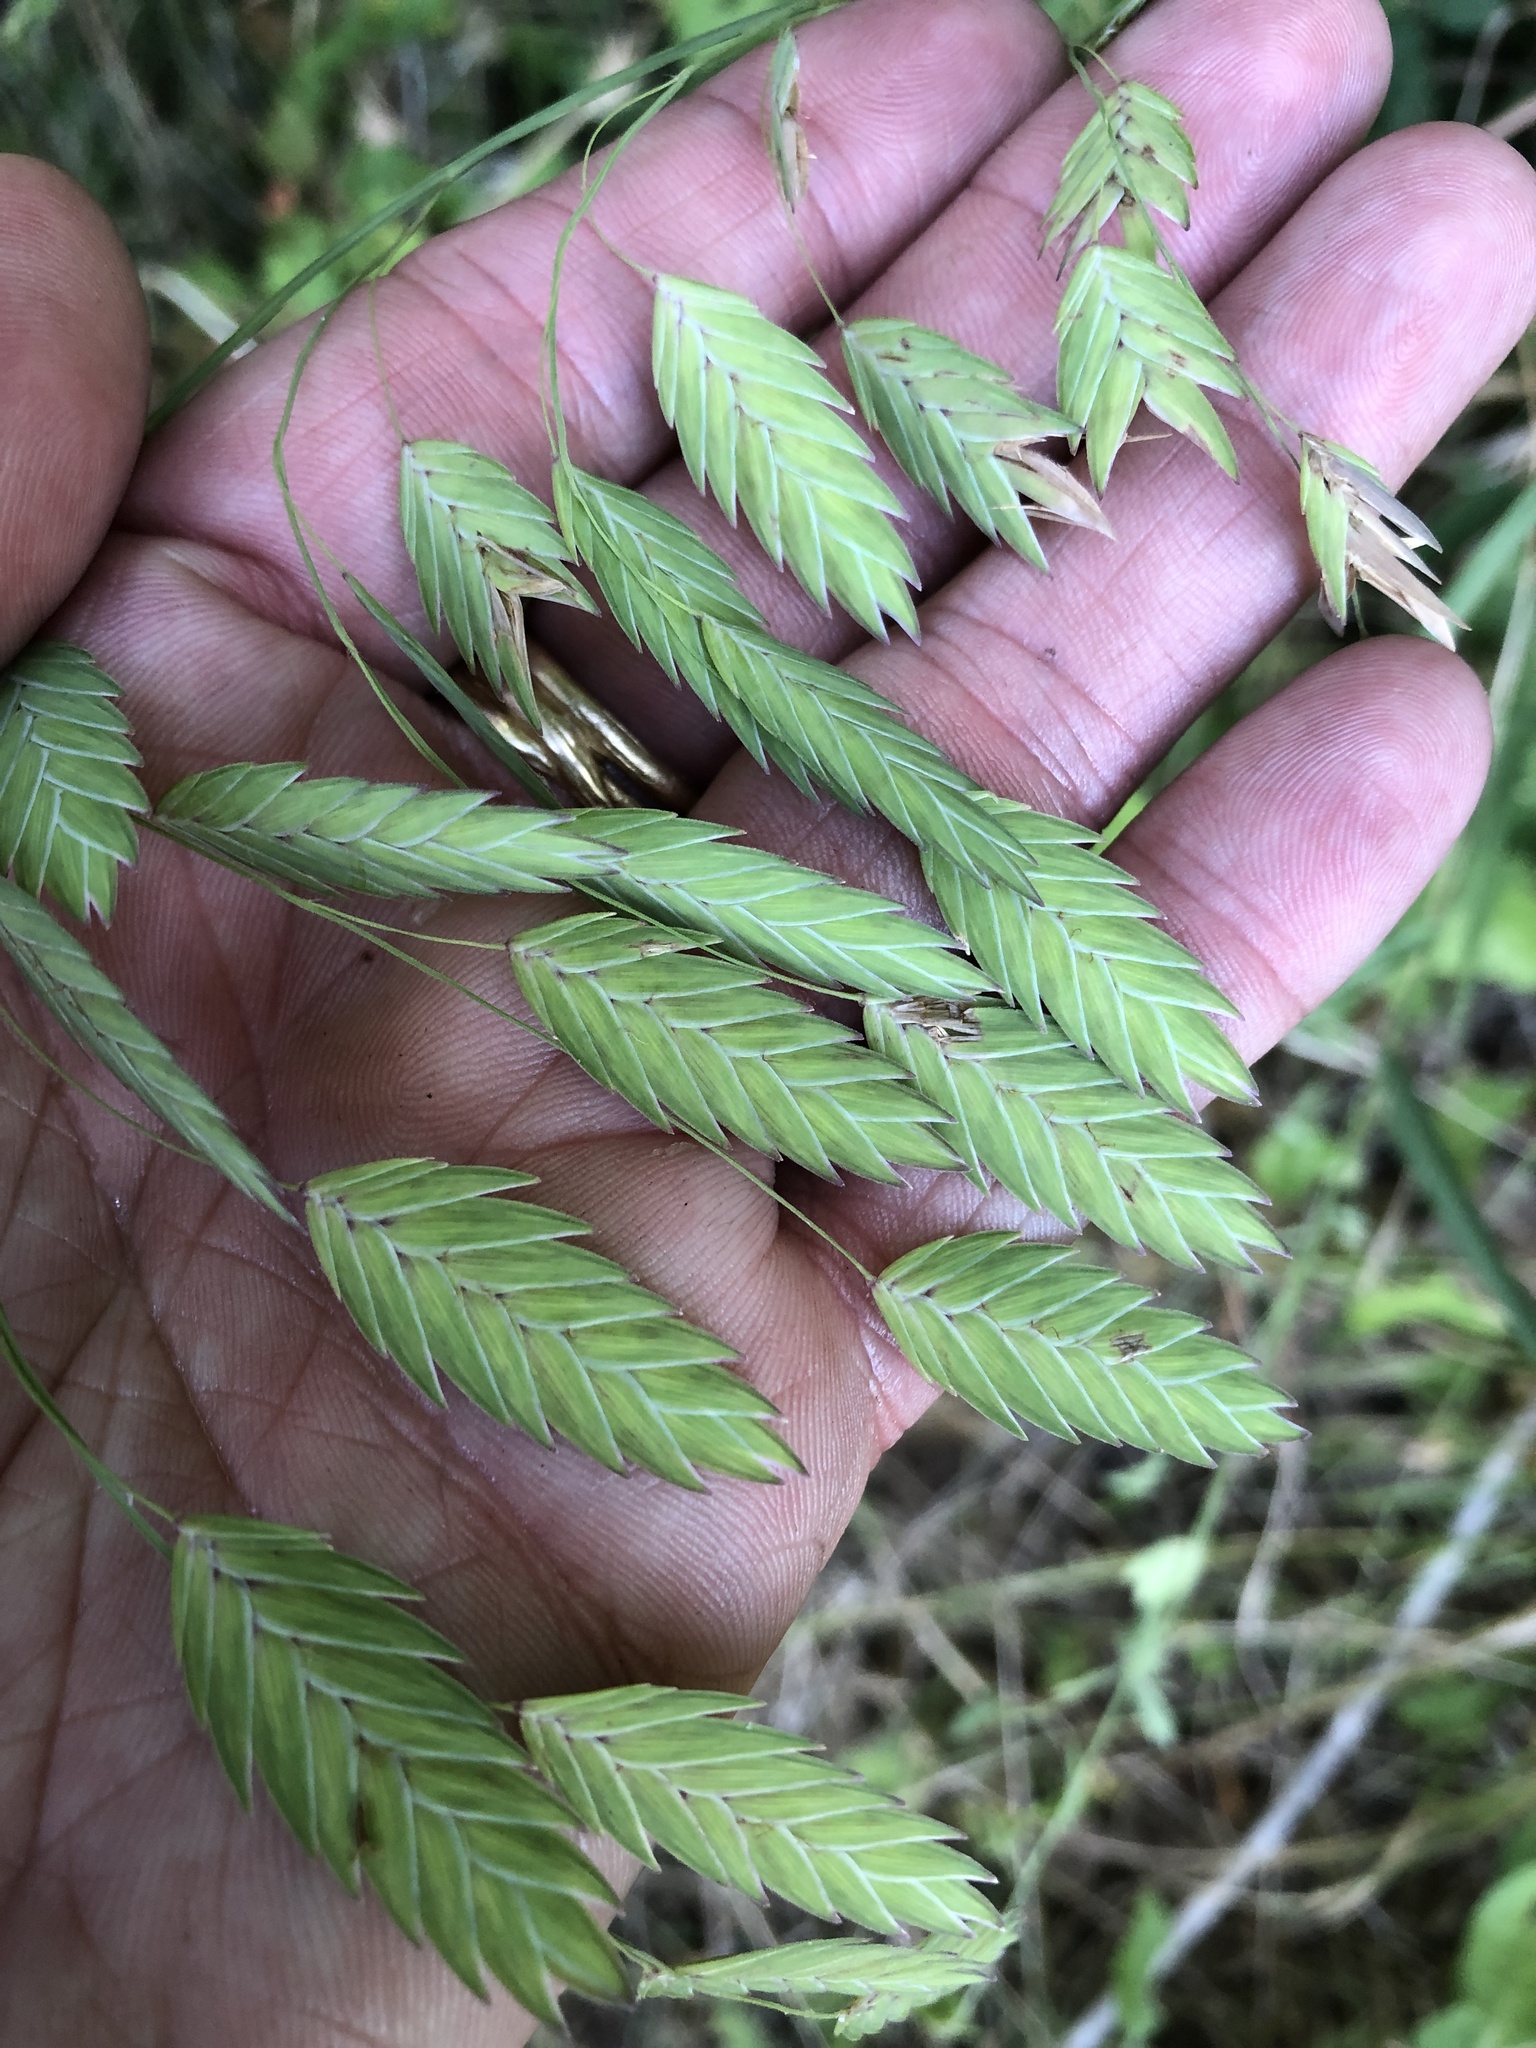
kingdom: Plantae
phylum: Tracheophyta
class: Liliopsida
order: Poales
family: Poaceae
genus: Chasmanthium
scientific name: Chasmanthium latifolium
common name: Broad-leaved chasmanthium
